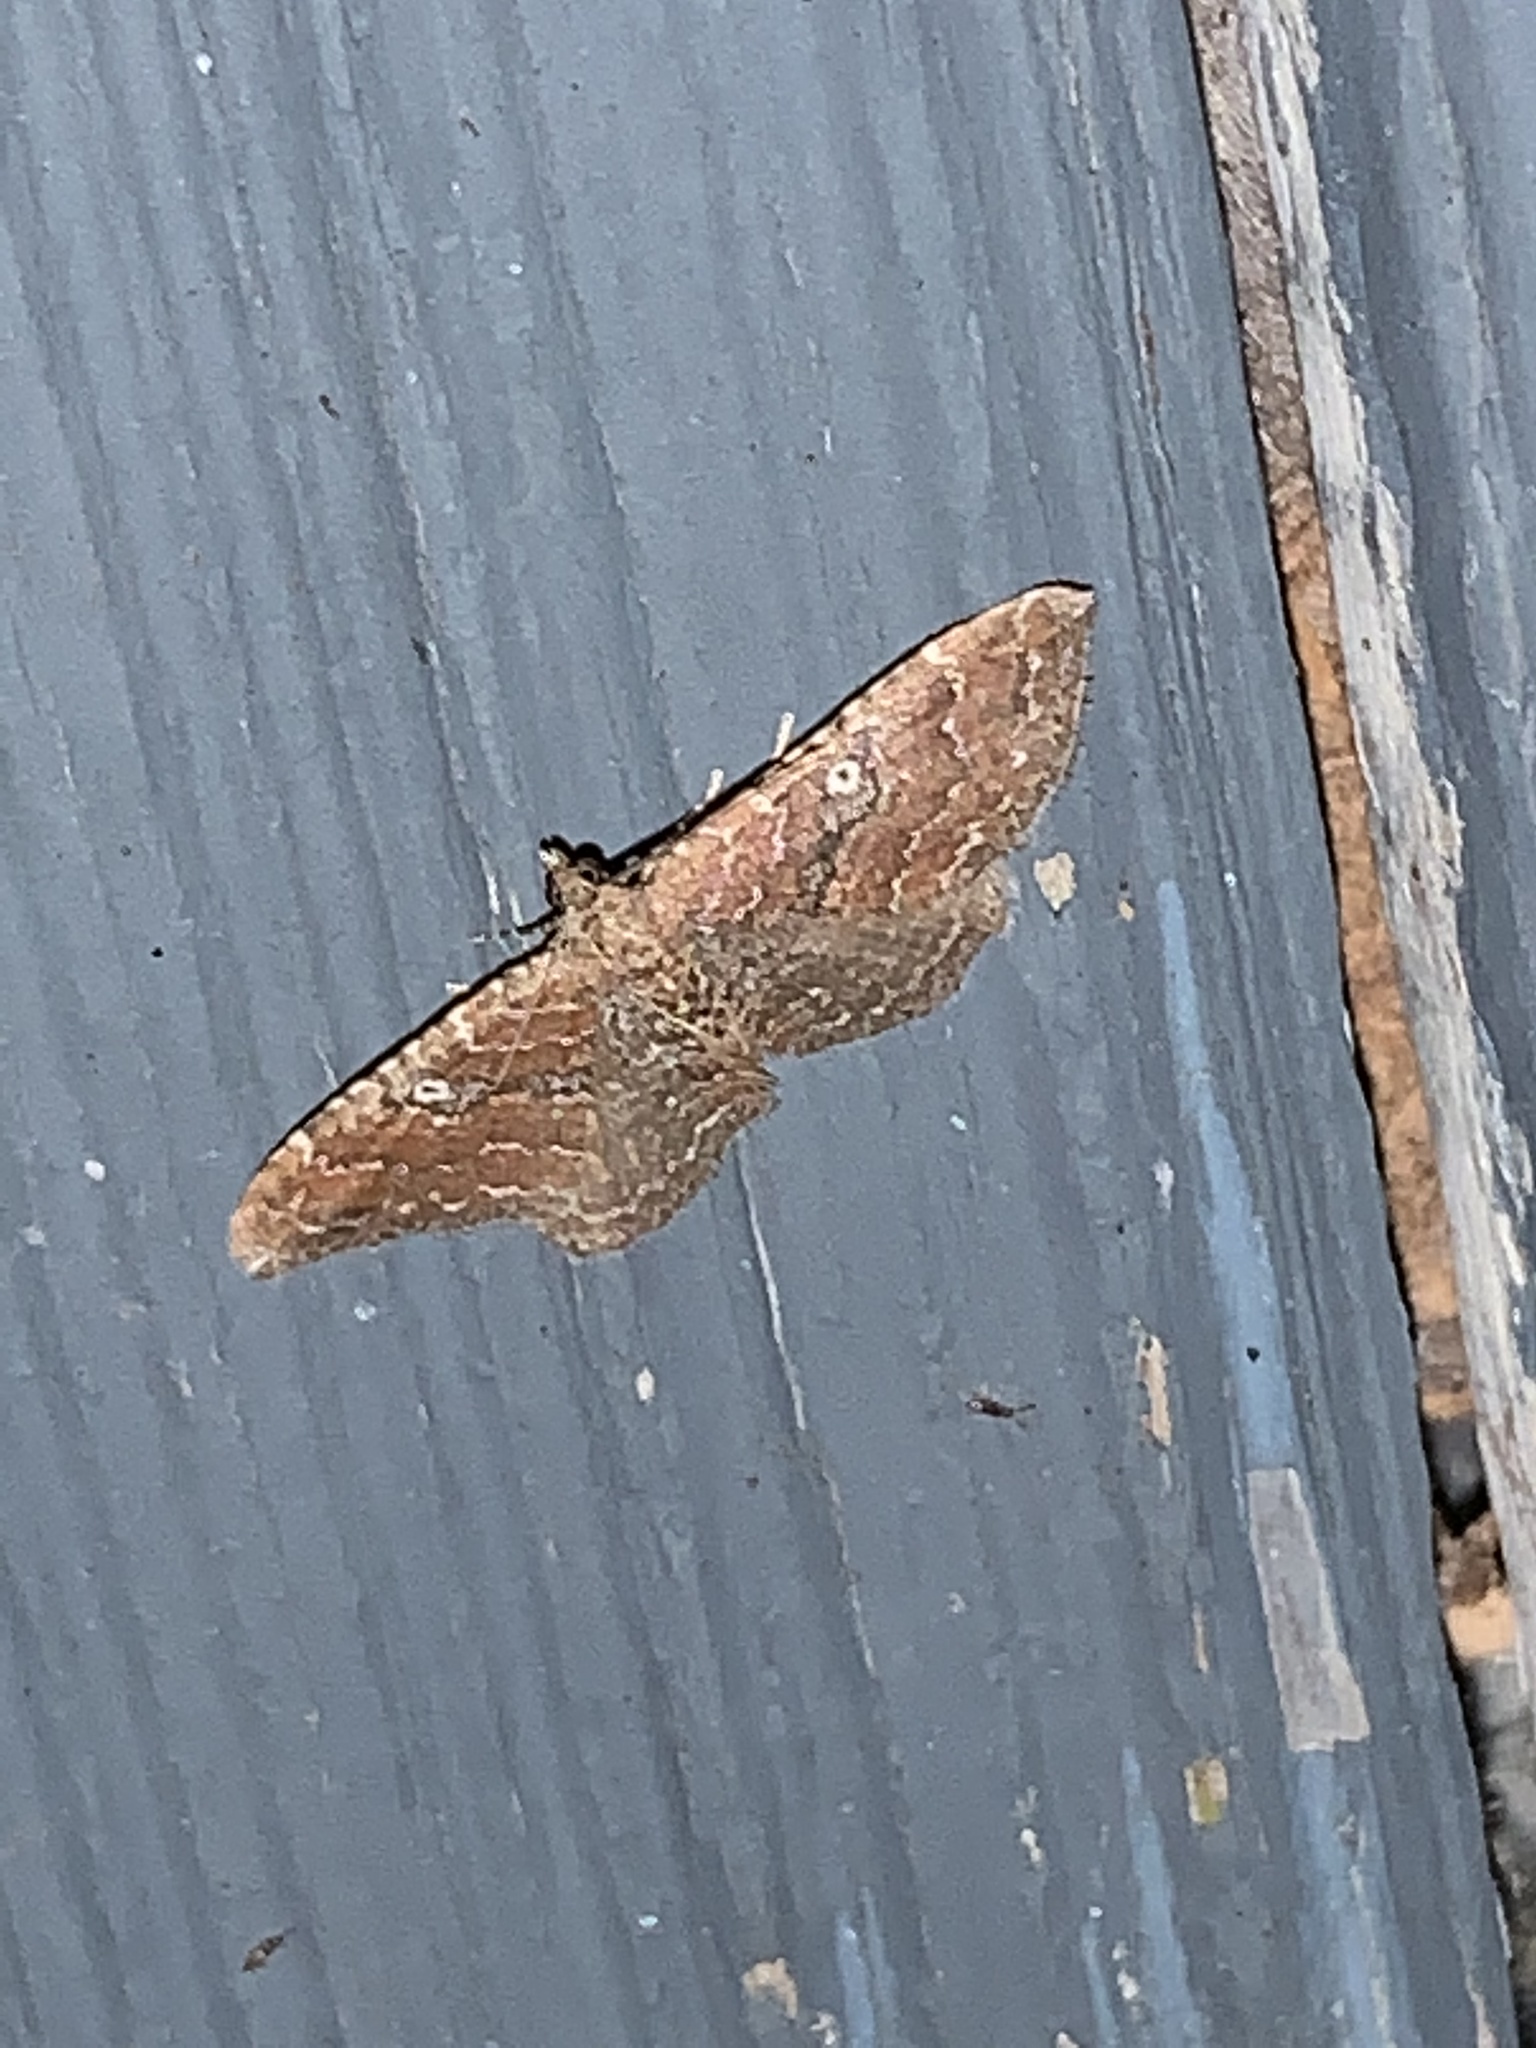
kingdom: Animalia
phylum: Arthropoda
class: Insecta
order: Lepidoptera
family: Geometridae
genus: Orthonama
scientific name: Orthonama obstipata
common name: The gem
